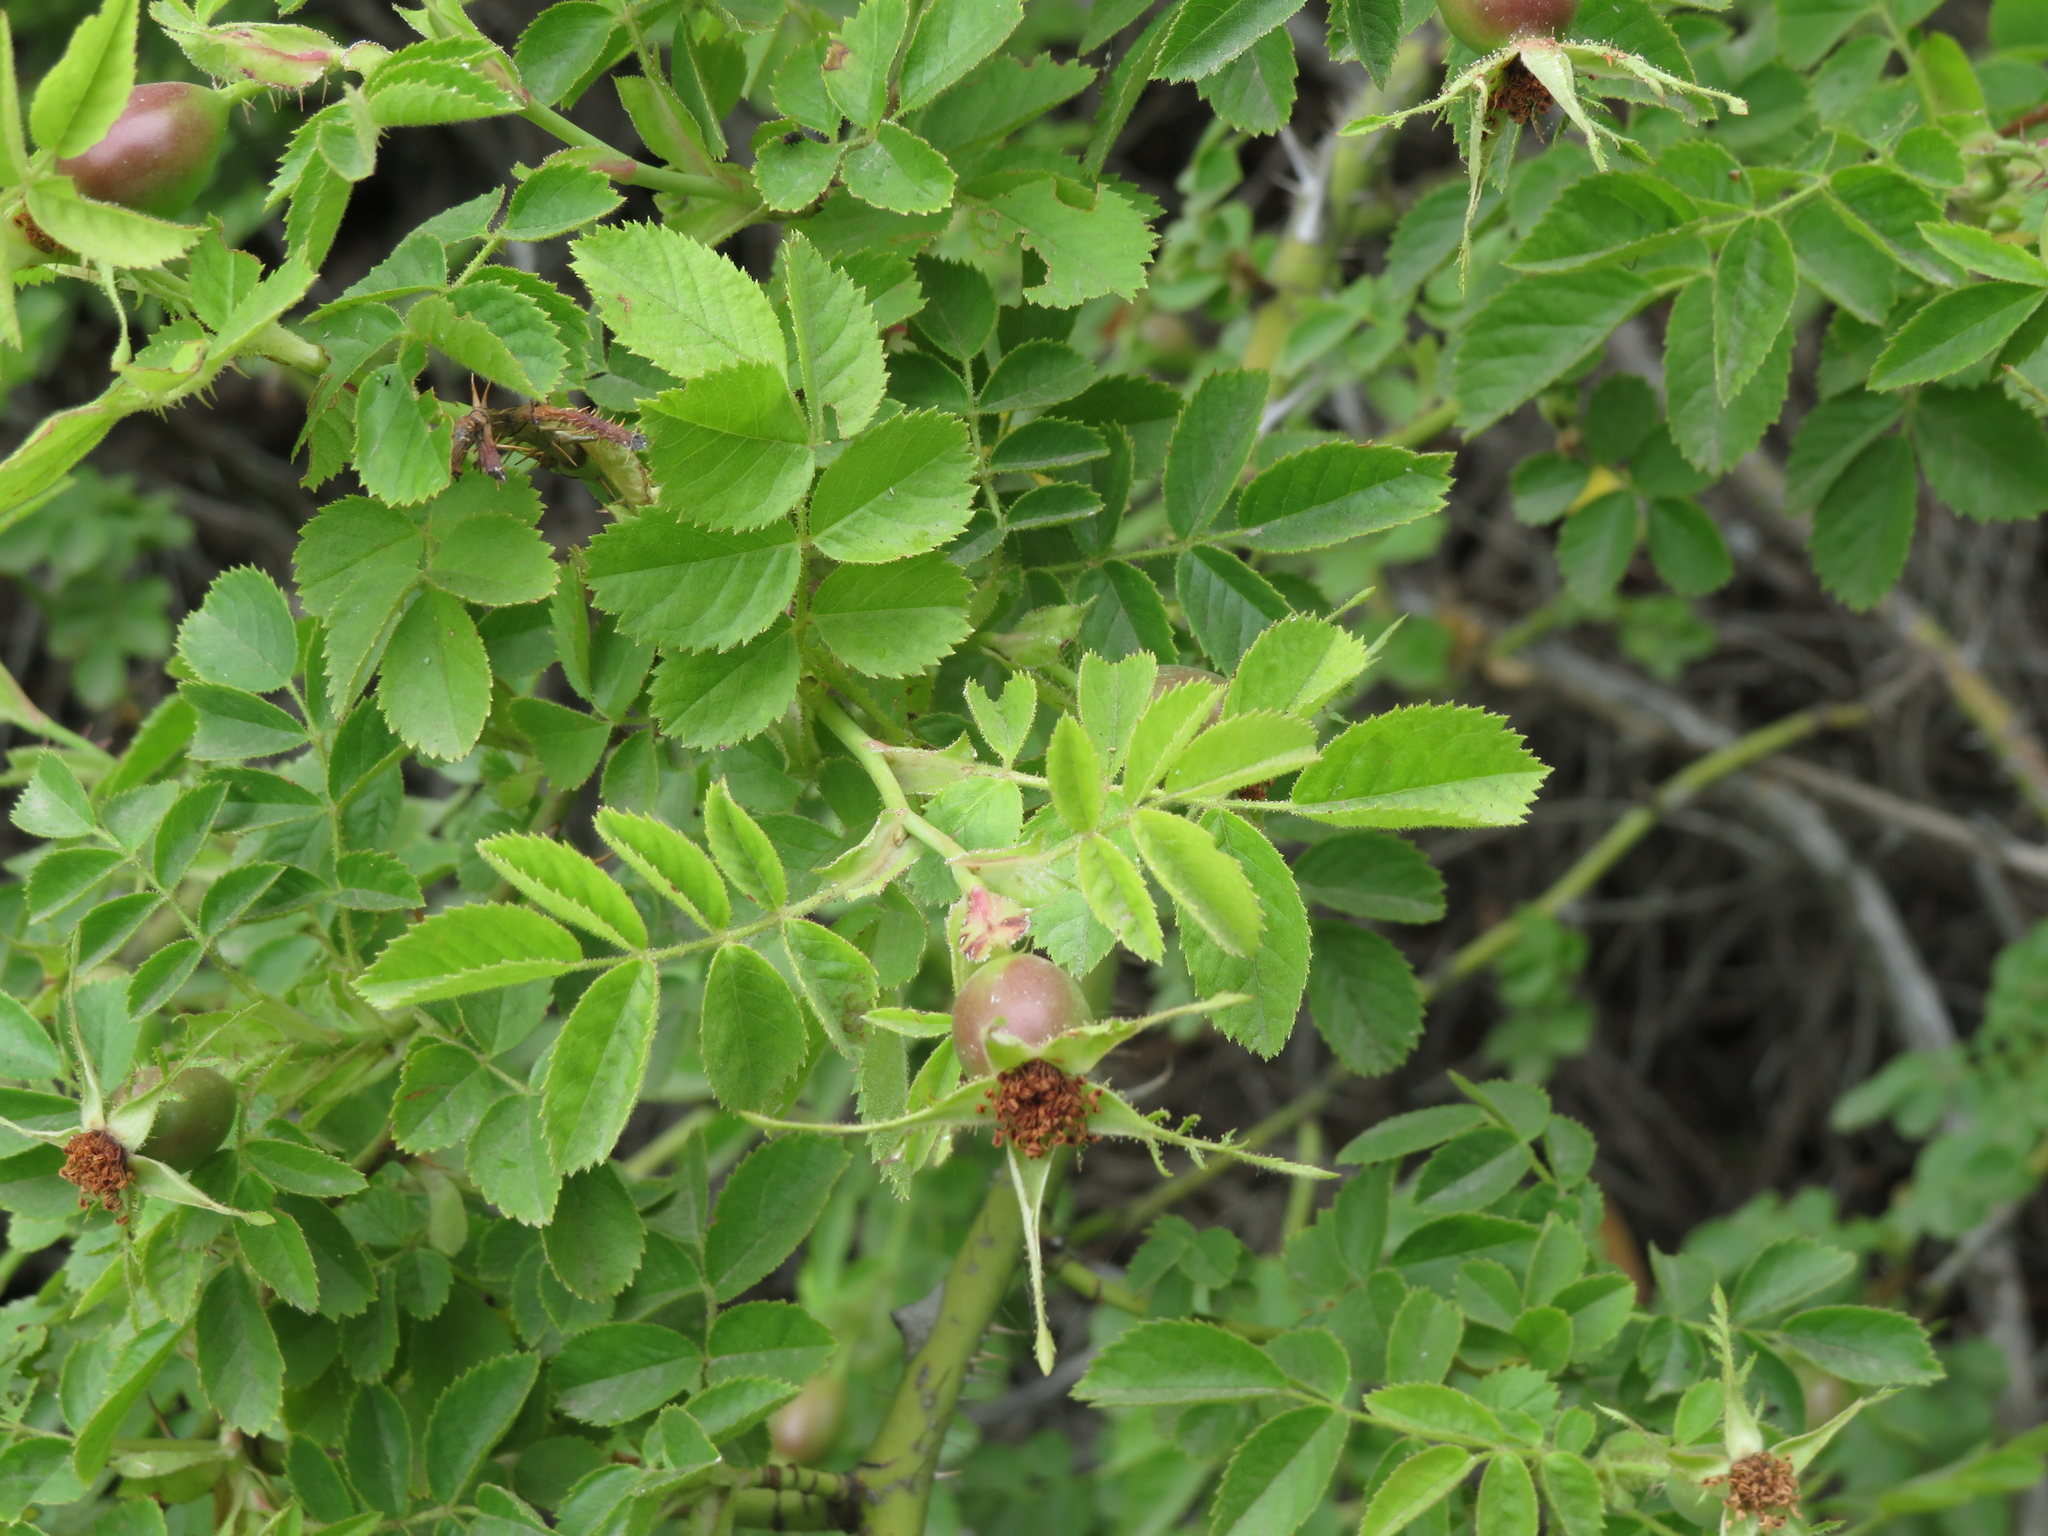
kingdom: Plantae
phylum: Tracheophyta
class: Magnoliopsida
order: Rosales
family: Rosaceae
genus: Rosa
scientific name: Rosa rubiginosa
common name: Sweet-briar
